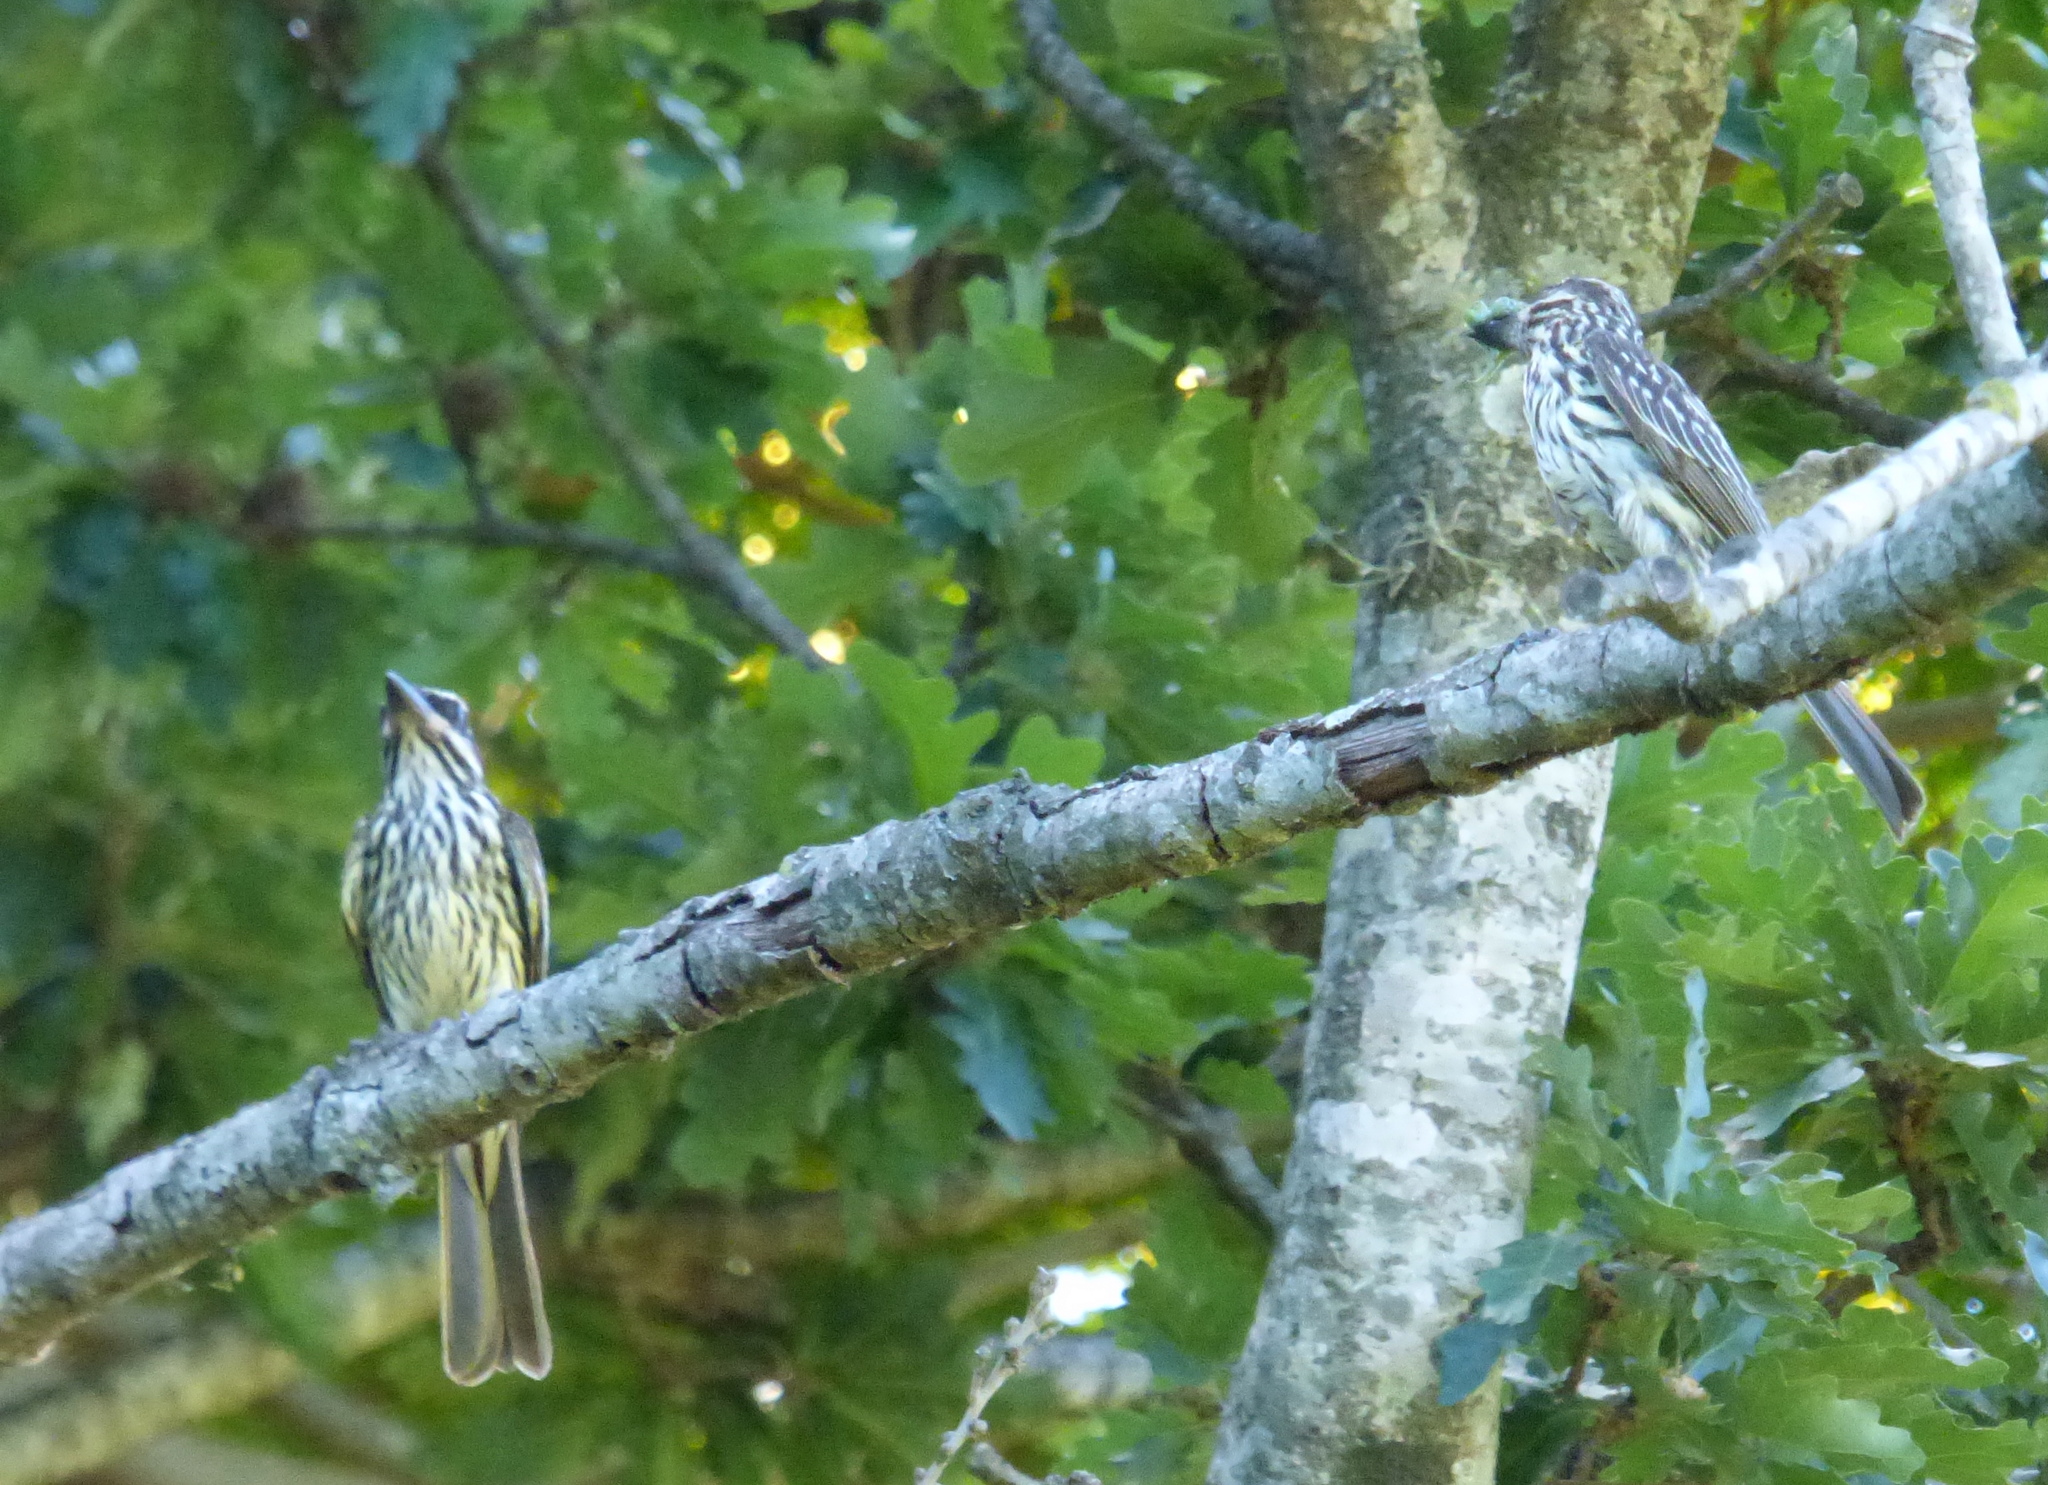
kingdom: Animalia
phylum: Chordata
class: Aves
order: Passeriformes
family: Tyrannidae
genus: Myiodynastes
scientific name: Myiodynastes maculatus
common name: Streaked flycatcher
